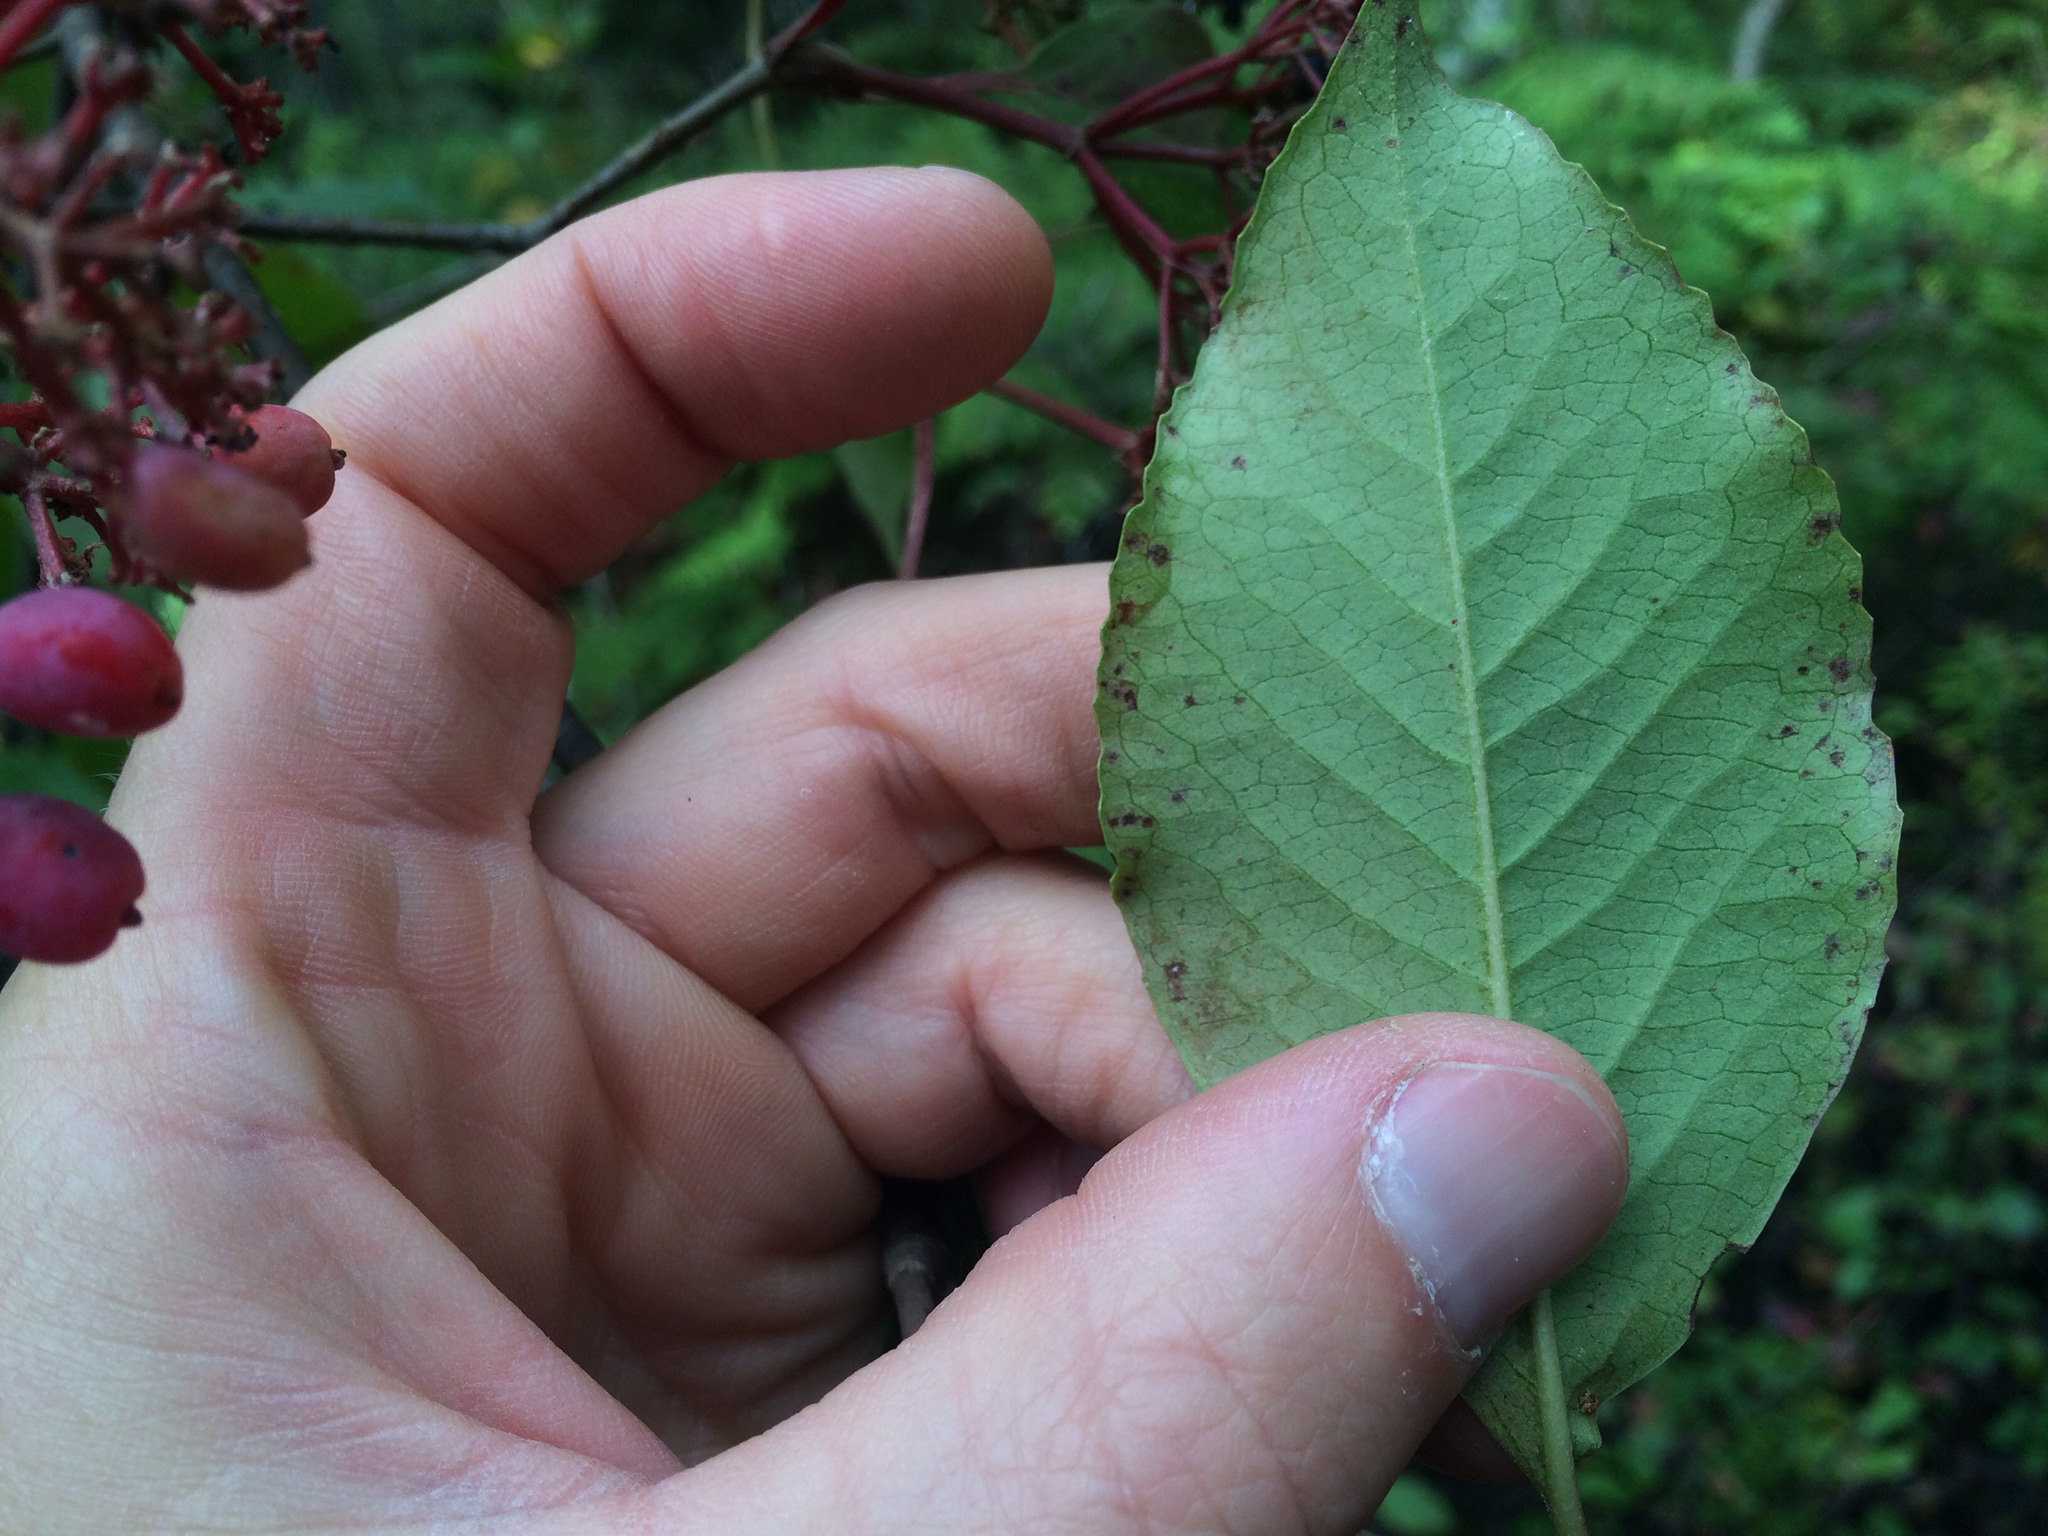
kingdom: Plantae
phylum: Tracheophyta
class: Magnoliopsida
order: Dipsacales
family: Viburnaceae
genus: Viburnum
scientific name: Viburnum cassinoides
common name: Swamp haw
